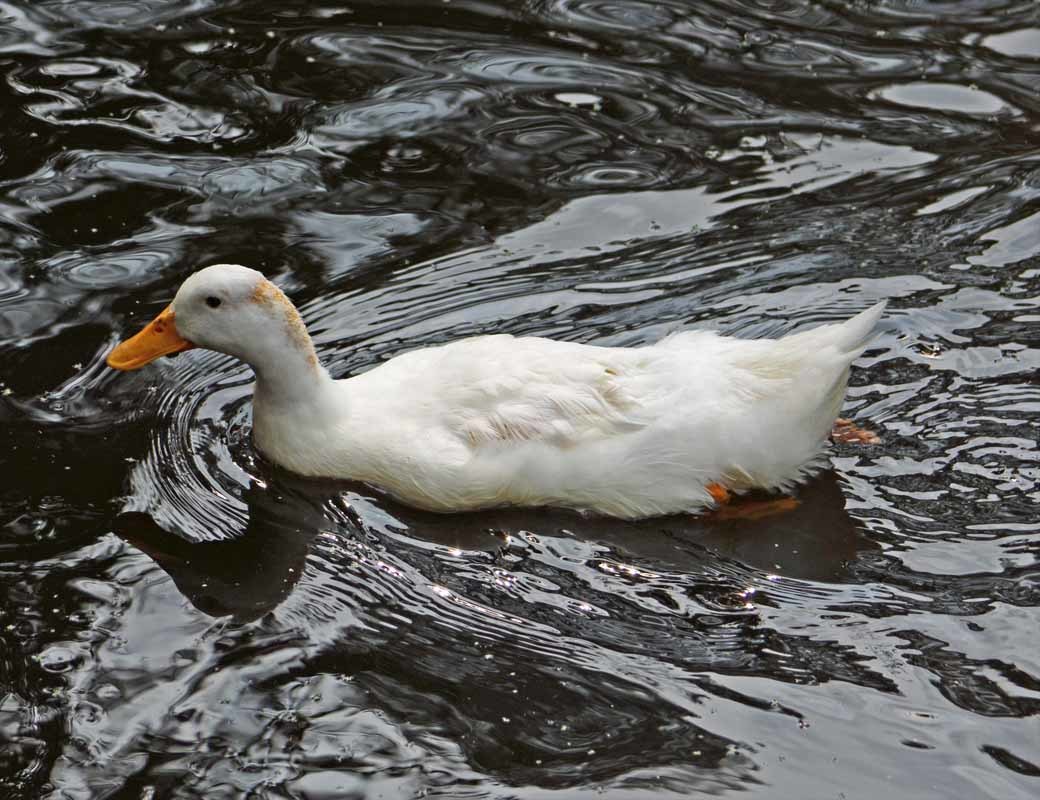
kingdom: Animalia
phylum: Chordata
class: Aves
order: Anseriformes
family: Anatidae
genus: Anas
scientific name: Anas platyrhynchos
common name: Mallard
